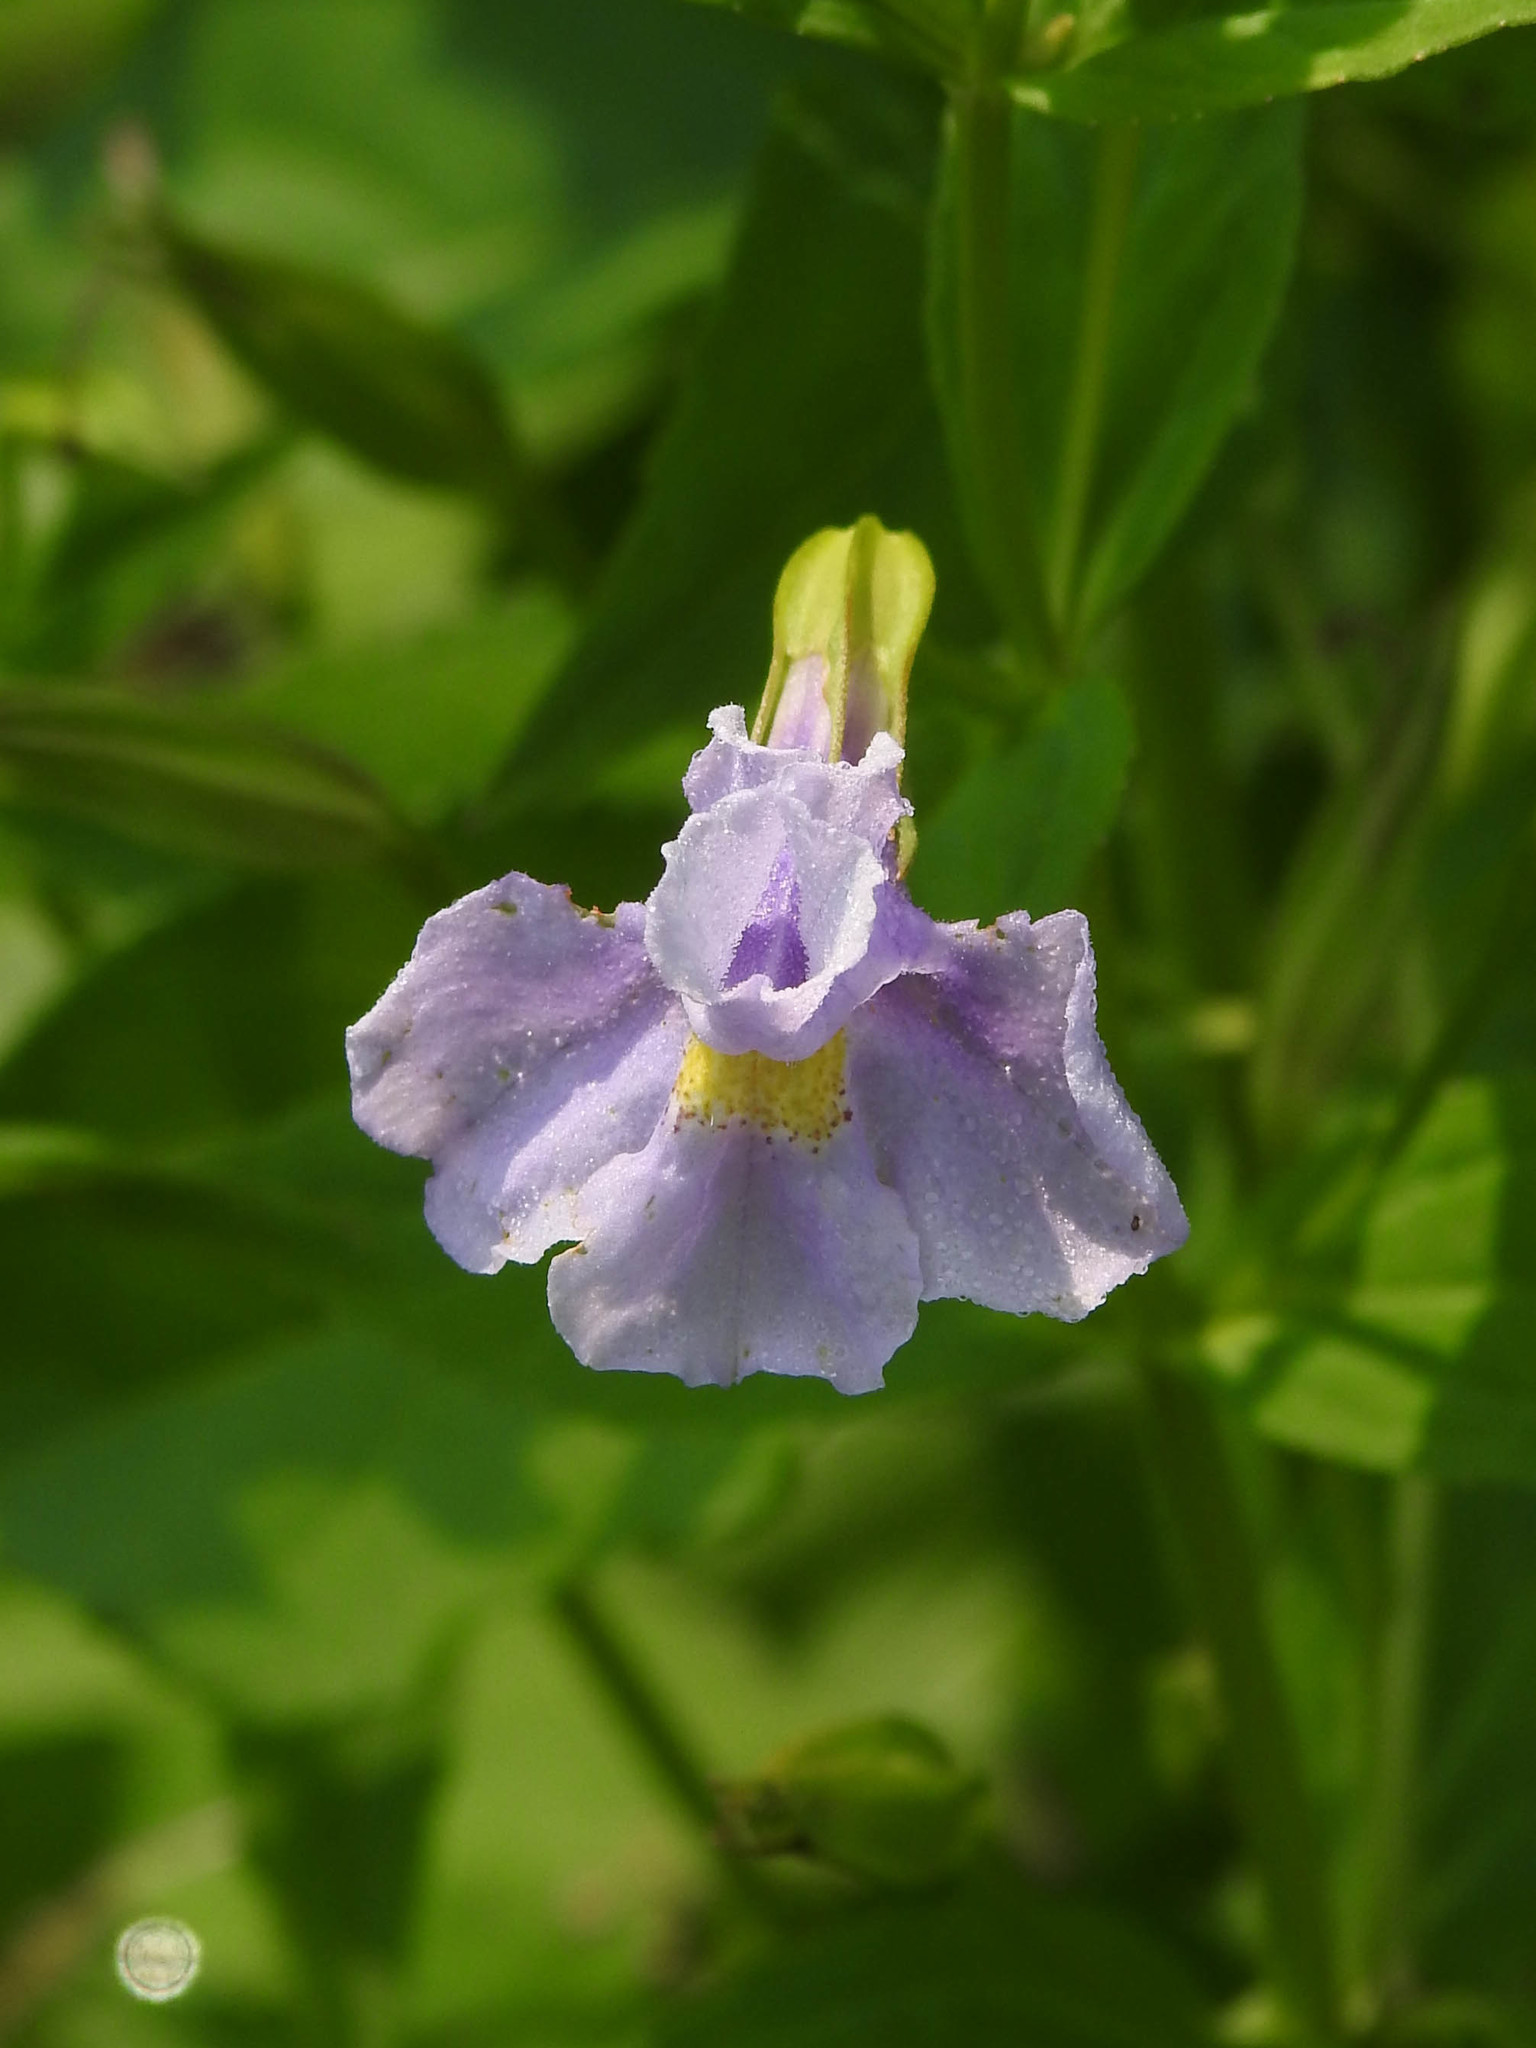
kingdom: Plantae
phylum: Tracheophyta
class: Magnoliopsida
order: Lamiales
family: Phrymaceae
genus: Mimulus
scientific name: Mimulus ringens
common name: Allegheny monkeyflower
